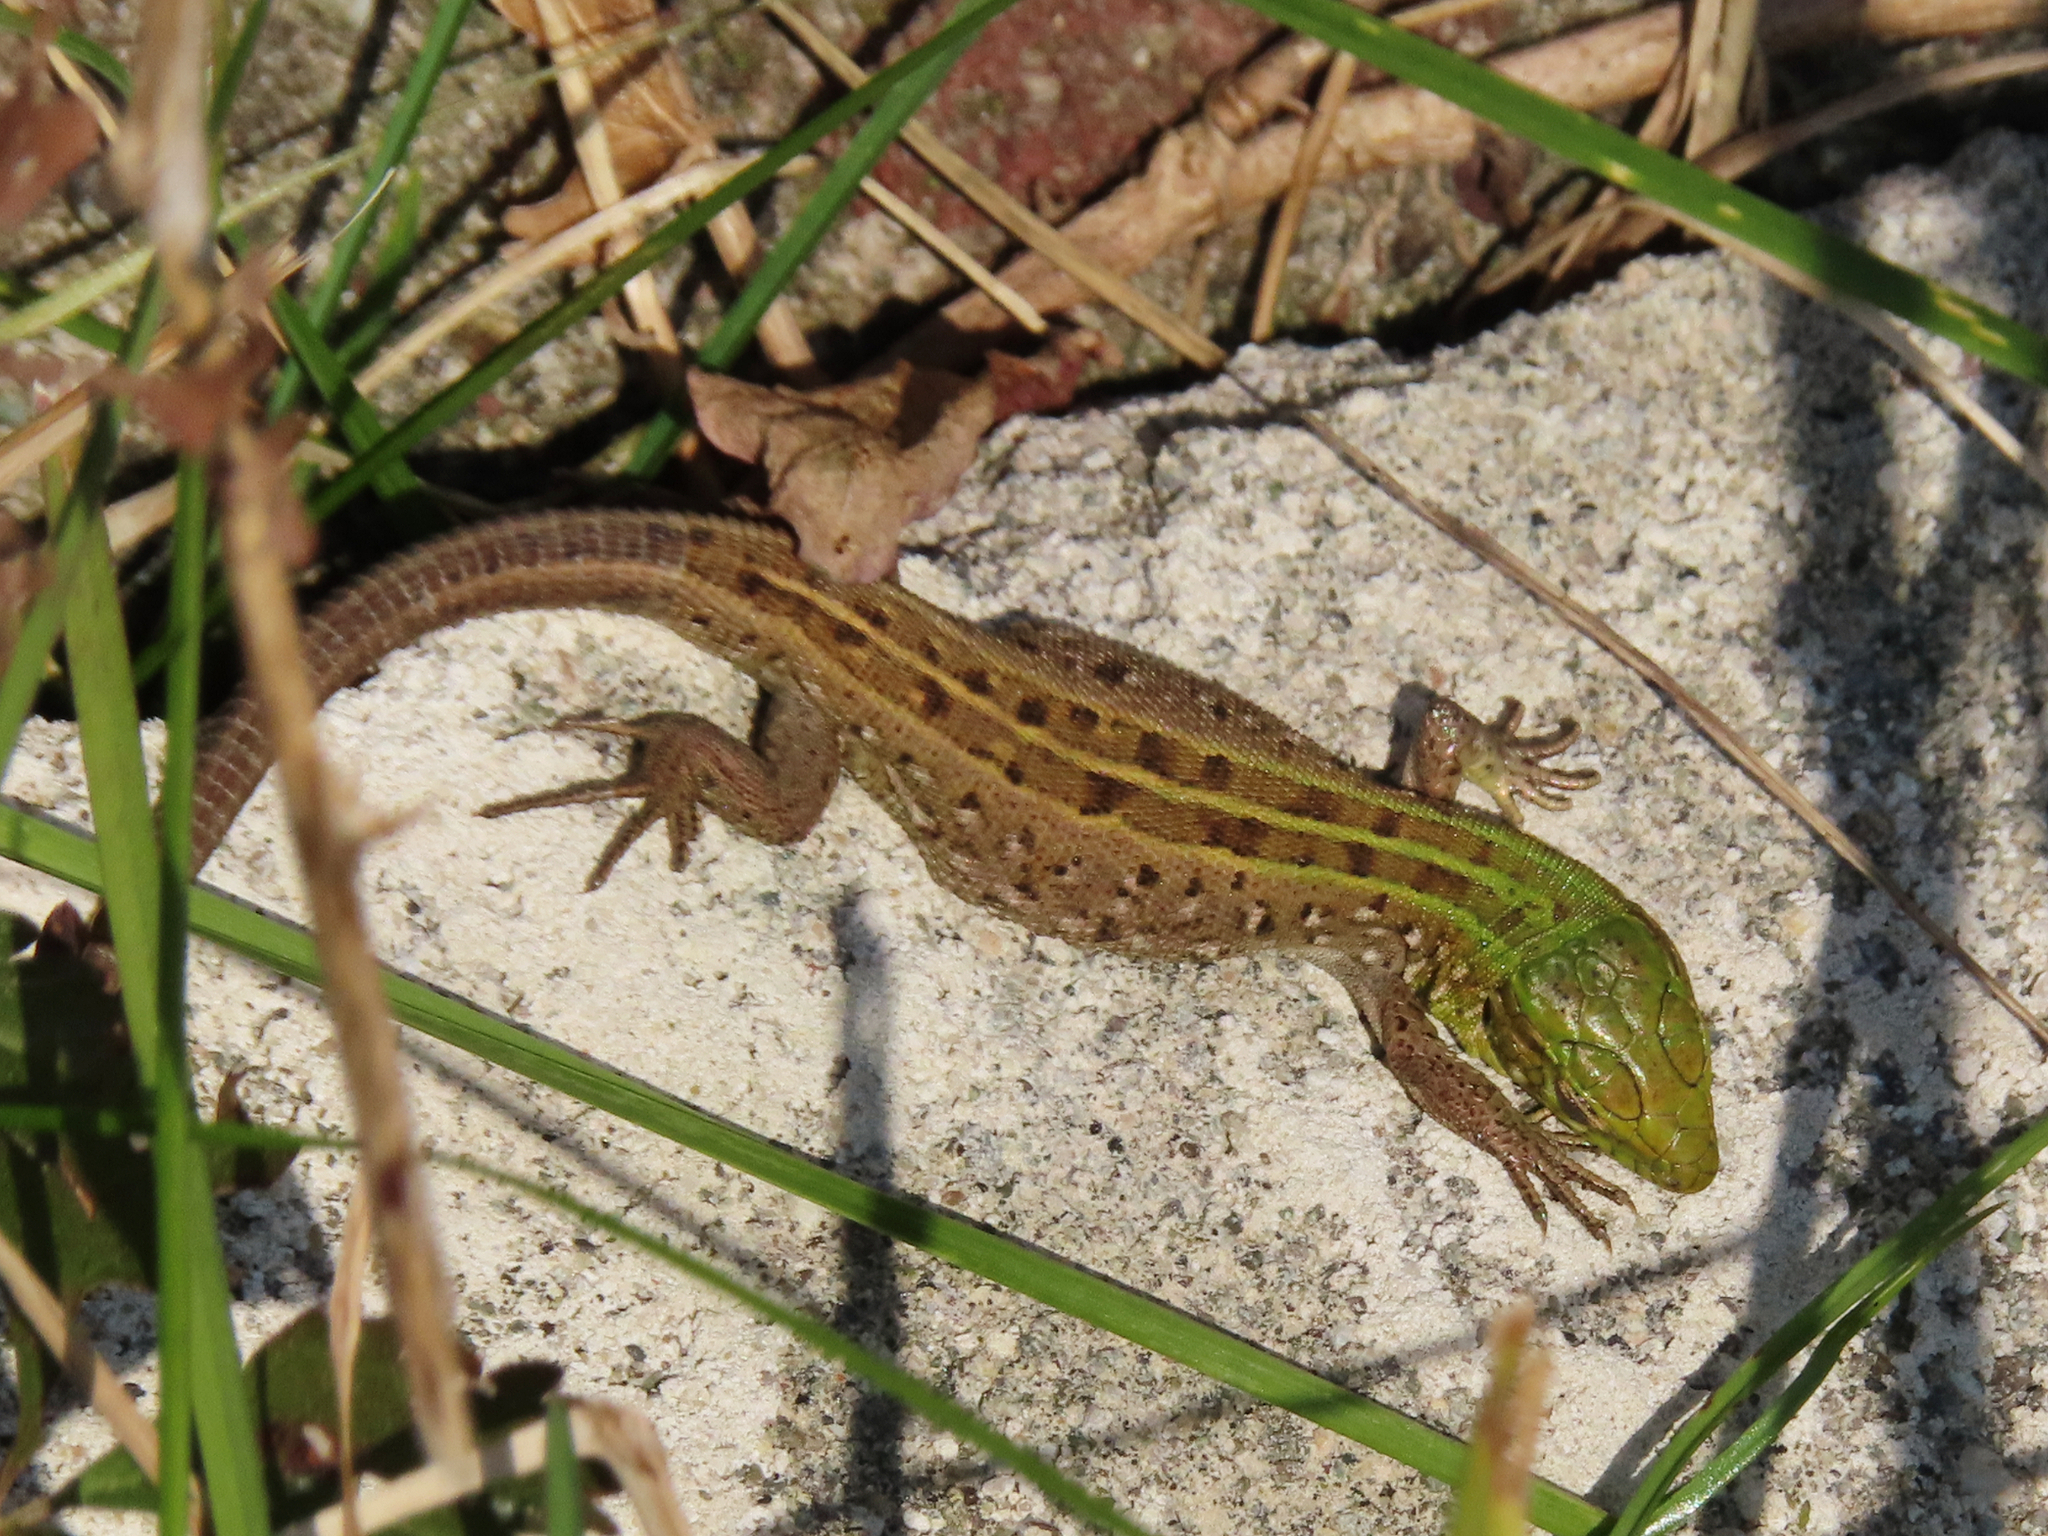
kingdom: Animalia
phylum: Chordata
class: Squamata
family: Lacertidae
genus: Lacerta
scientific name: Lacerta agilis
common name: Sand lizard
